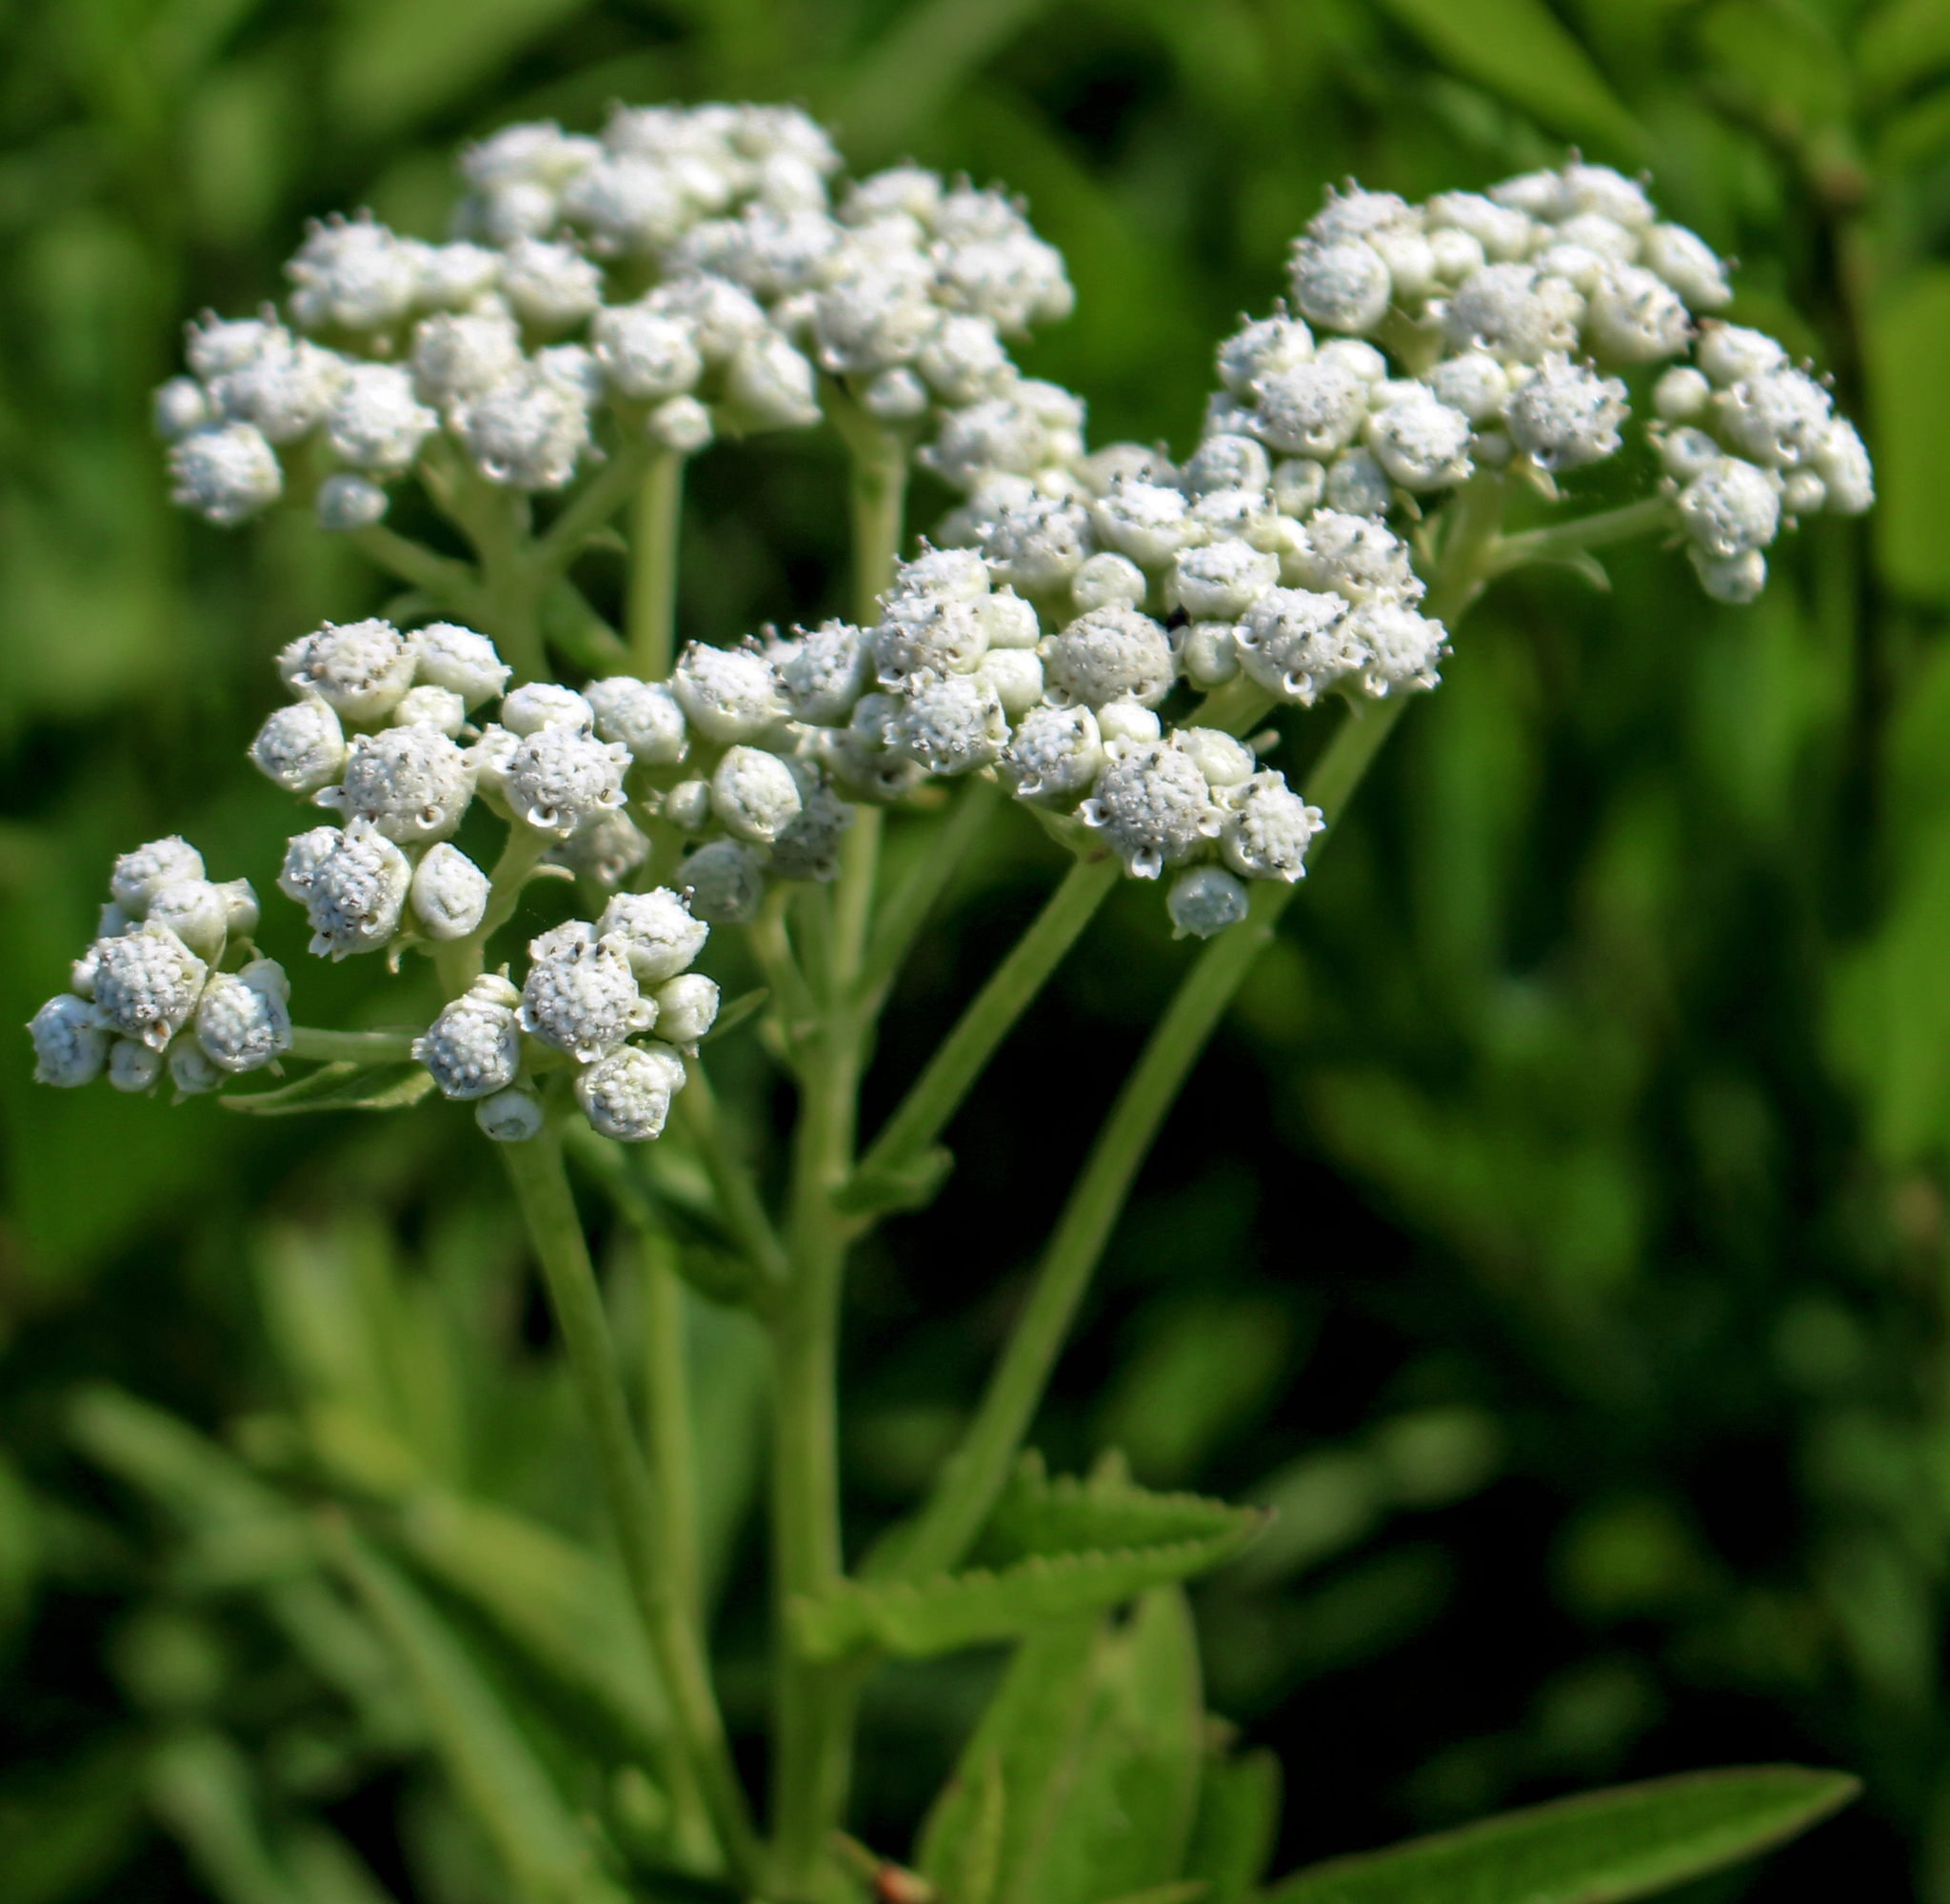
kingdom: Plantae
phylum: Tracheophyta
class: Magnoliopsida
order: Asterales
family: Asteraceae
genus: Parthenium
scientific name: Parthenium integrifolium
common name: American feverfew
